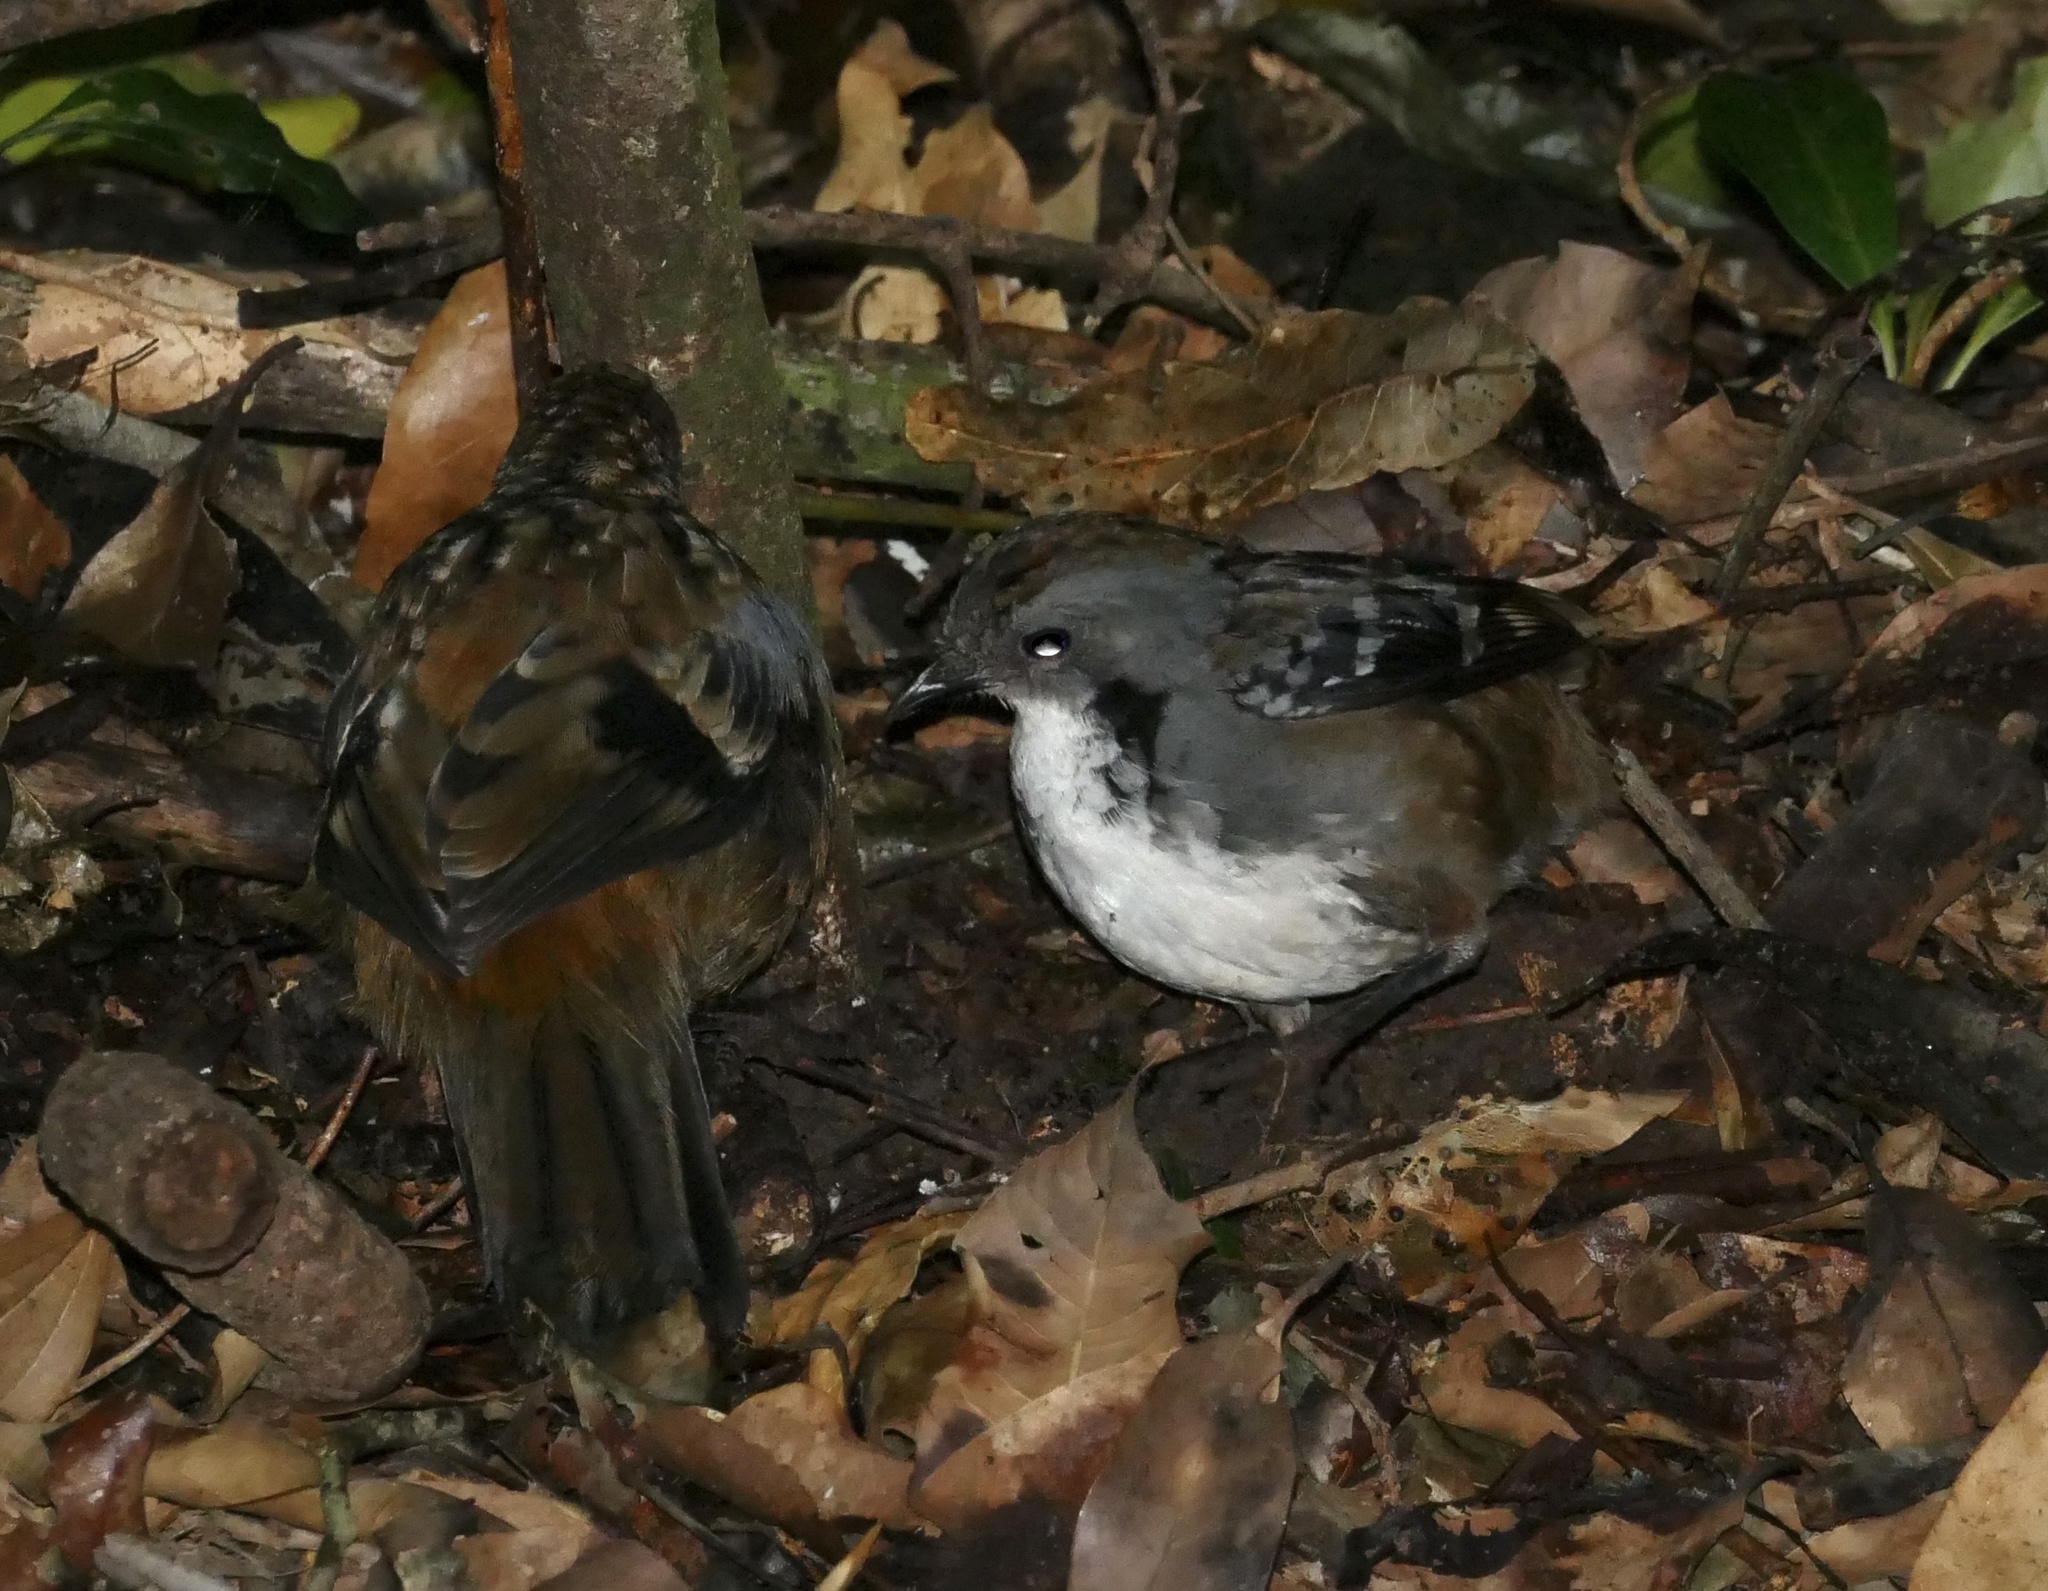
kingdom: Animalia
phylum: Chordata
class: Aves
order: Passeriformes
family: Orthonychidae
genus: Orthonyx
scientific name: Orthonyx temminckii
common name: Australian logrunner
